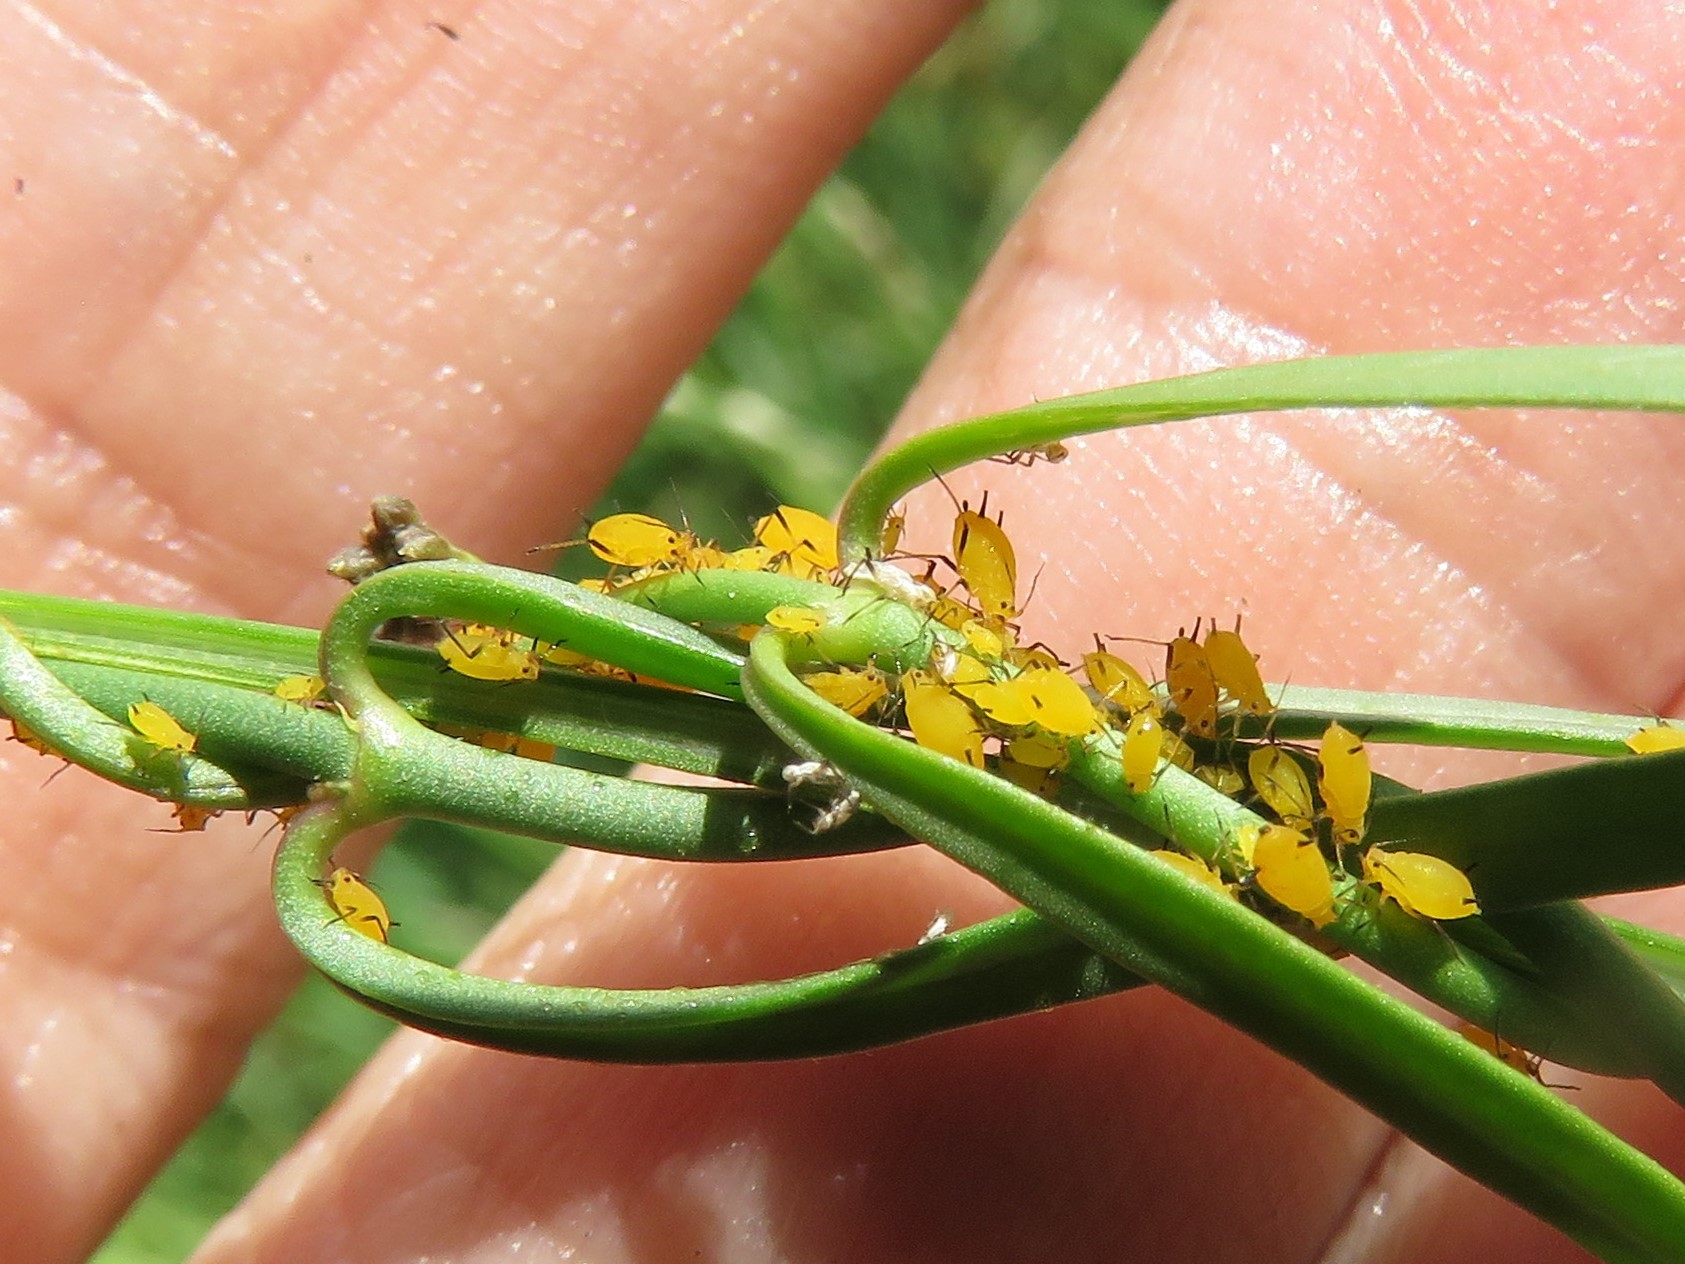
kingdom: Animalia
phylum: Arthropoda
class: Insecta
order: Hemiptera
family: Aphididae
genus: Aphis
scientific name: Aphis nerii
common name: Oleander aphid
